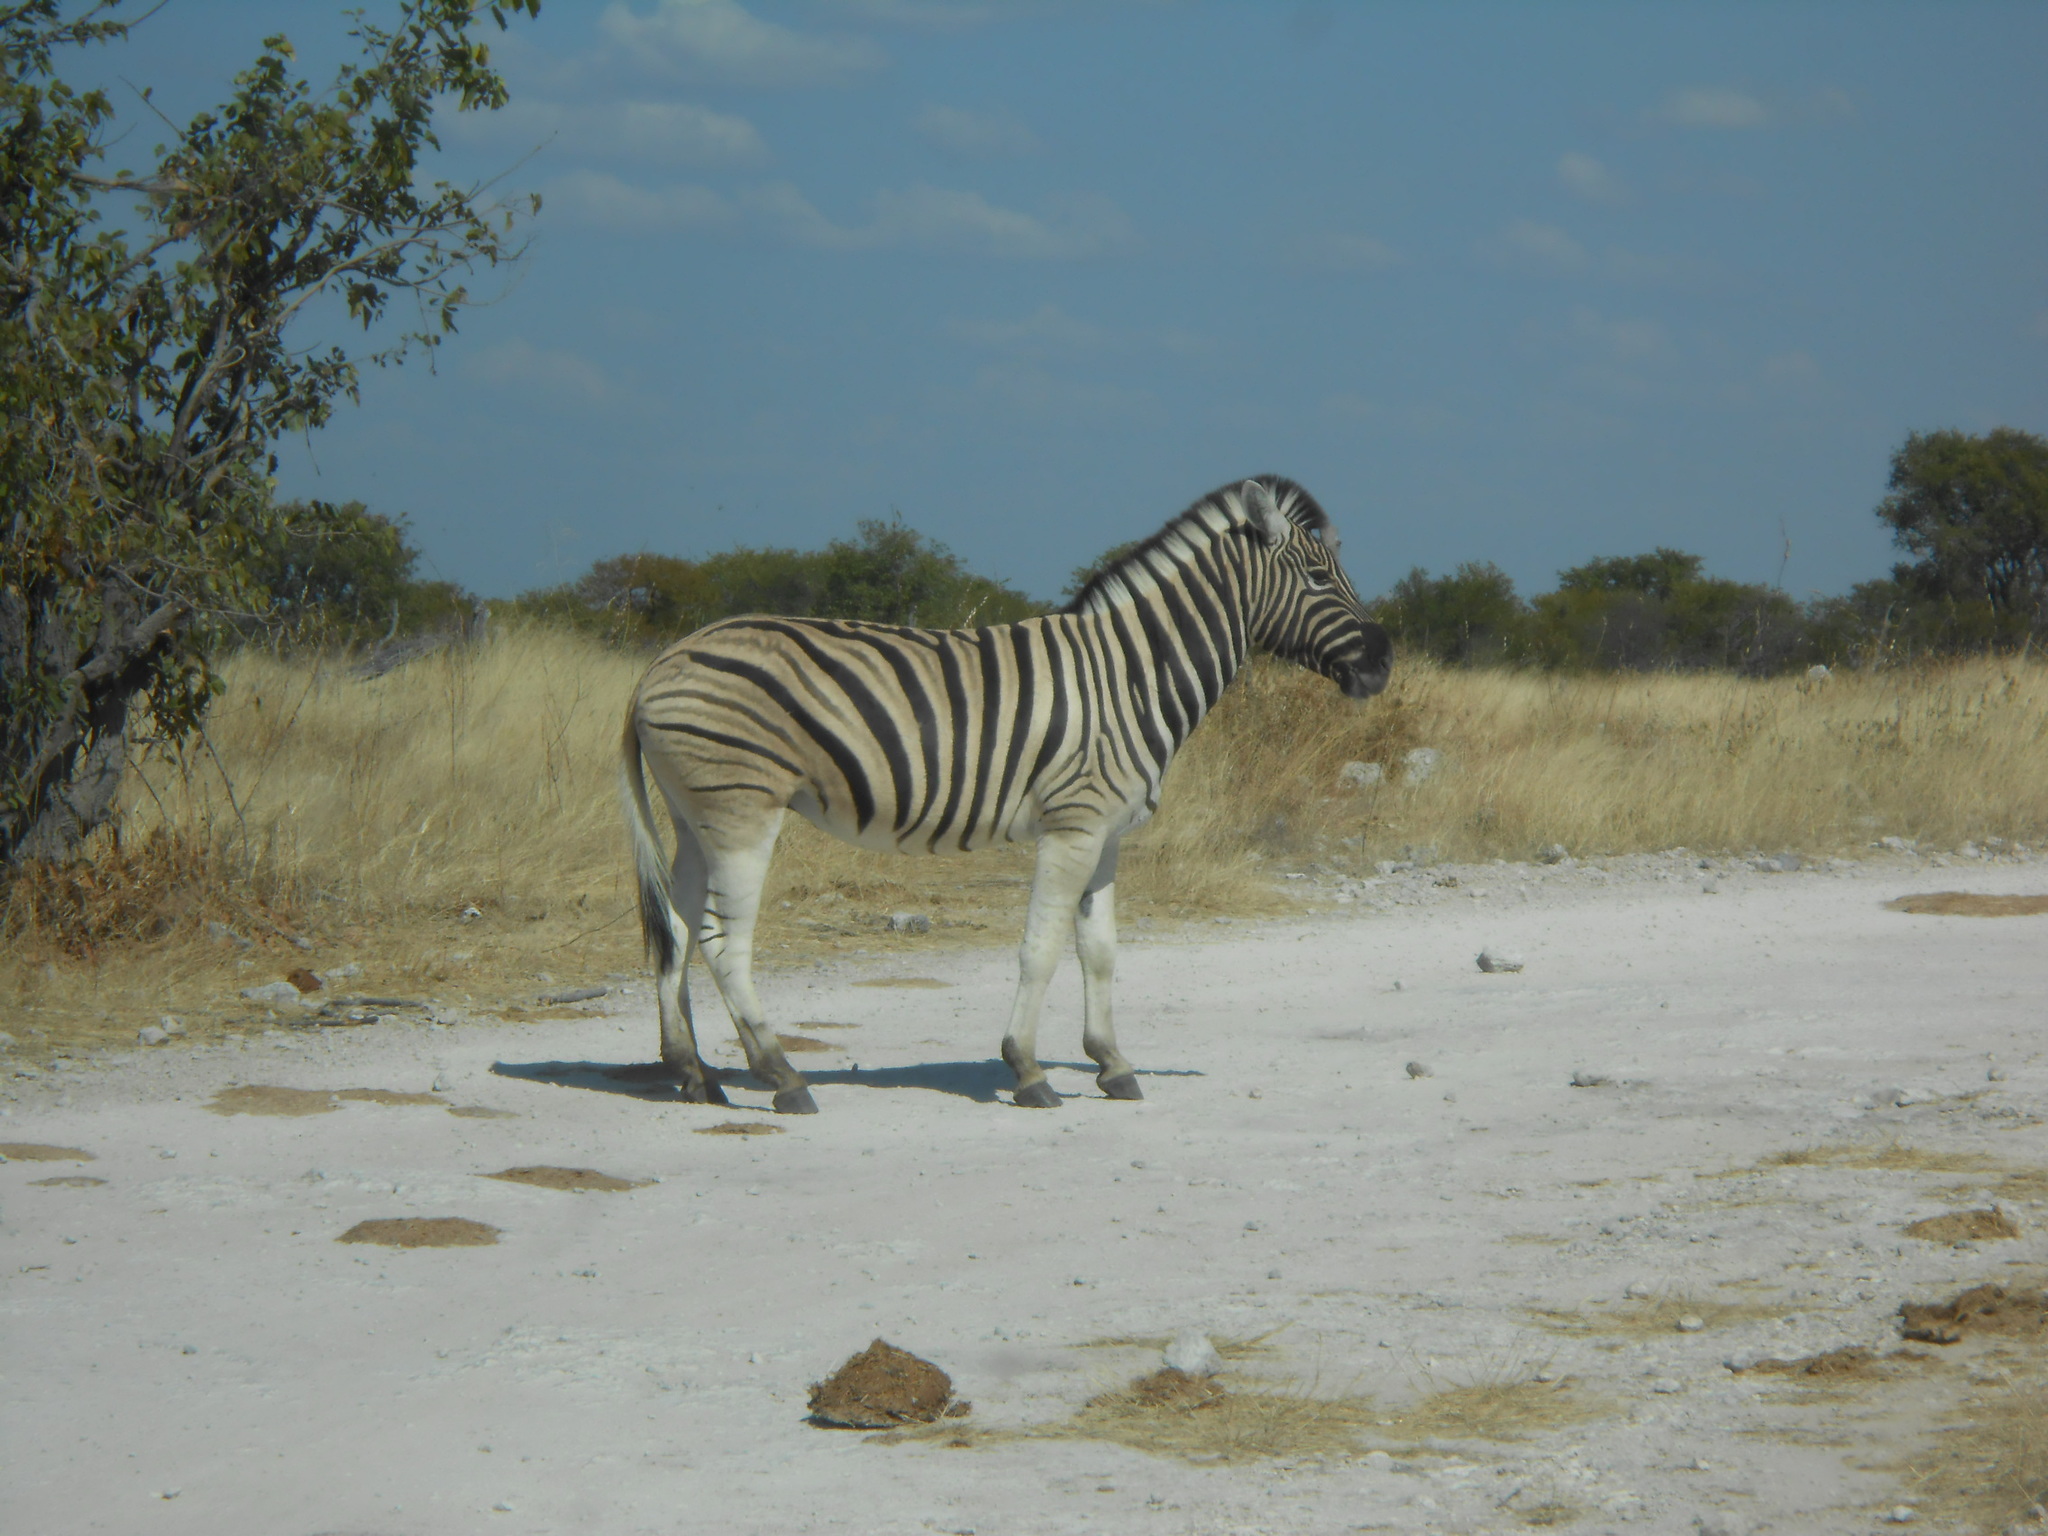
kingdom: Animalia
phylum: Chordata
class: Mammalia
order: Perissodactyla
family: Equidae
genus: Equus
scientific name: Equus quagga
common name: Plains zebra
